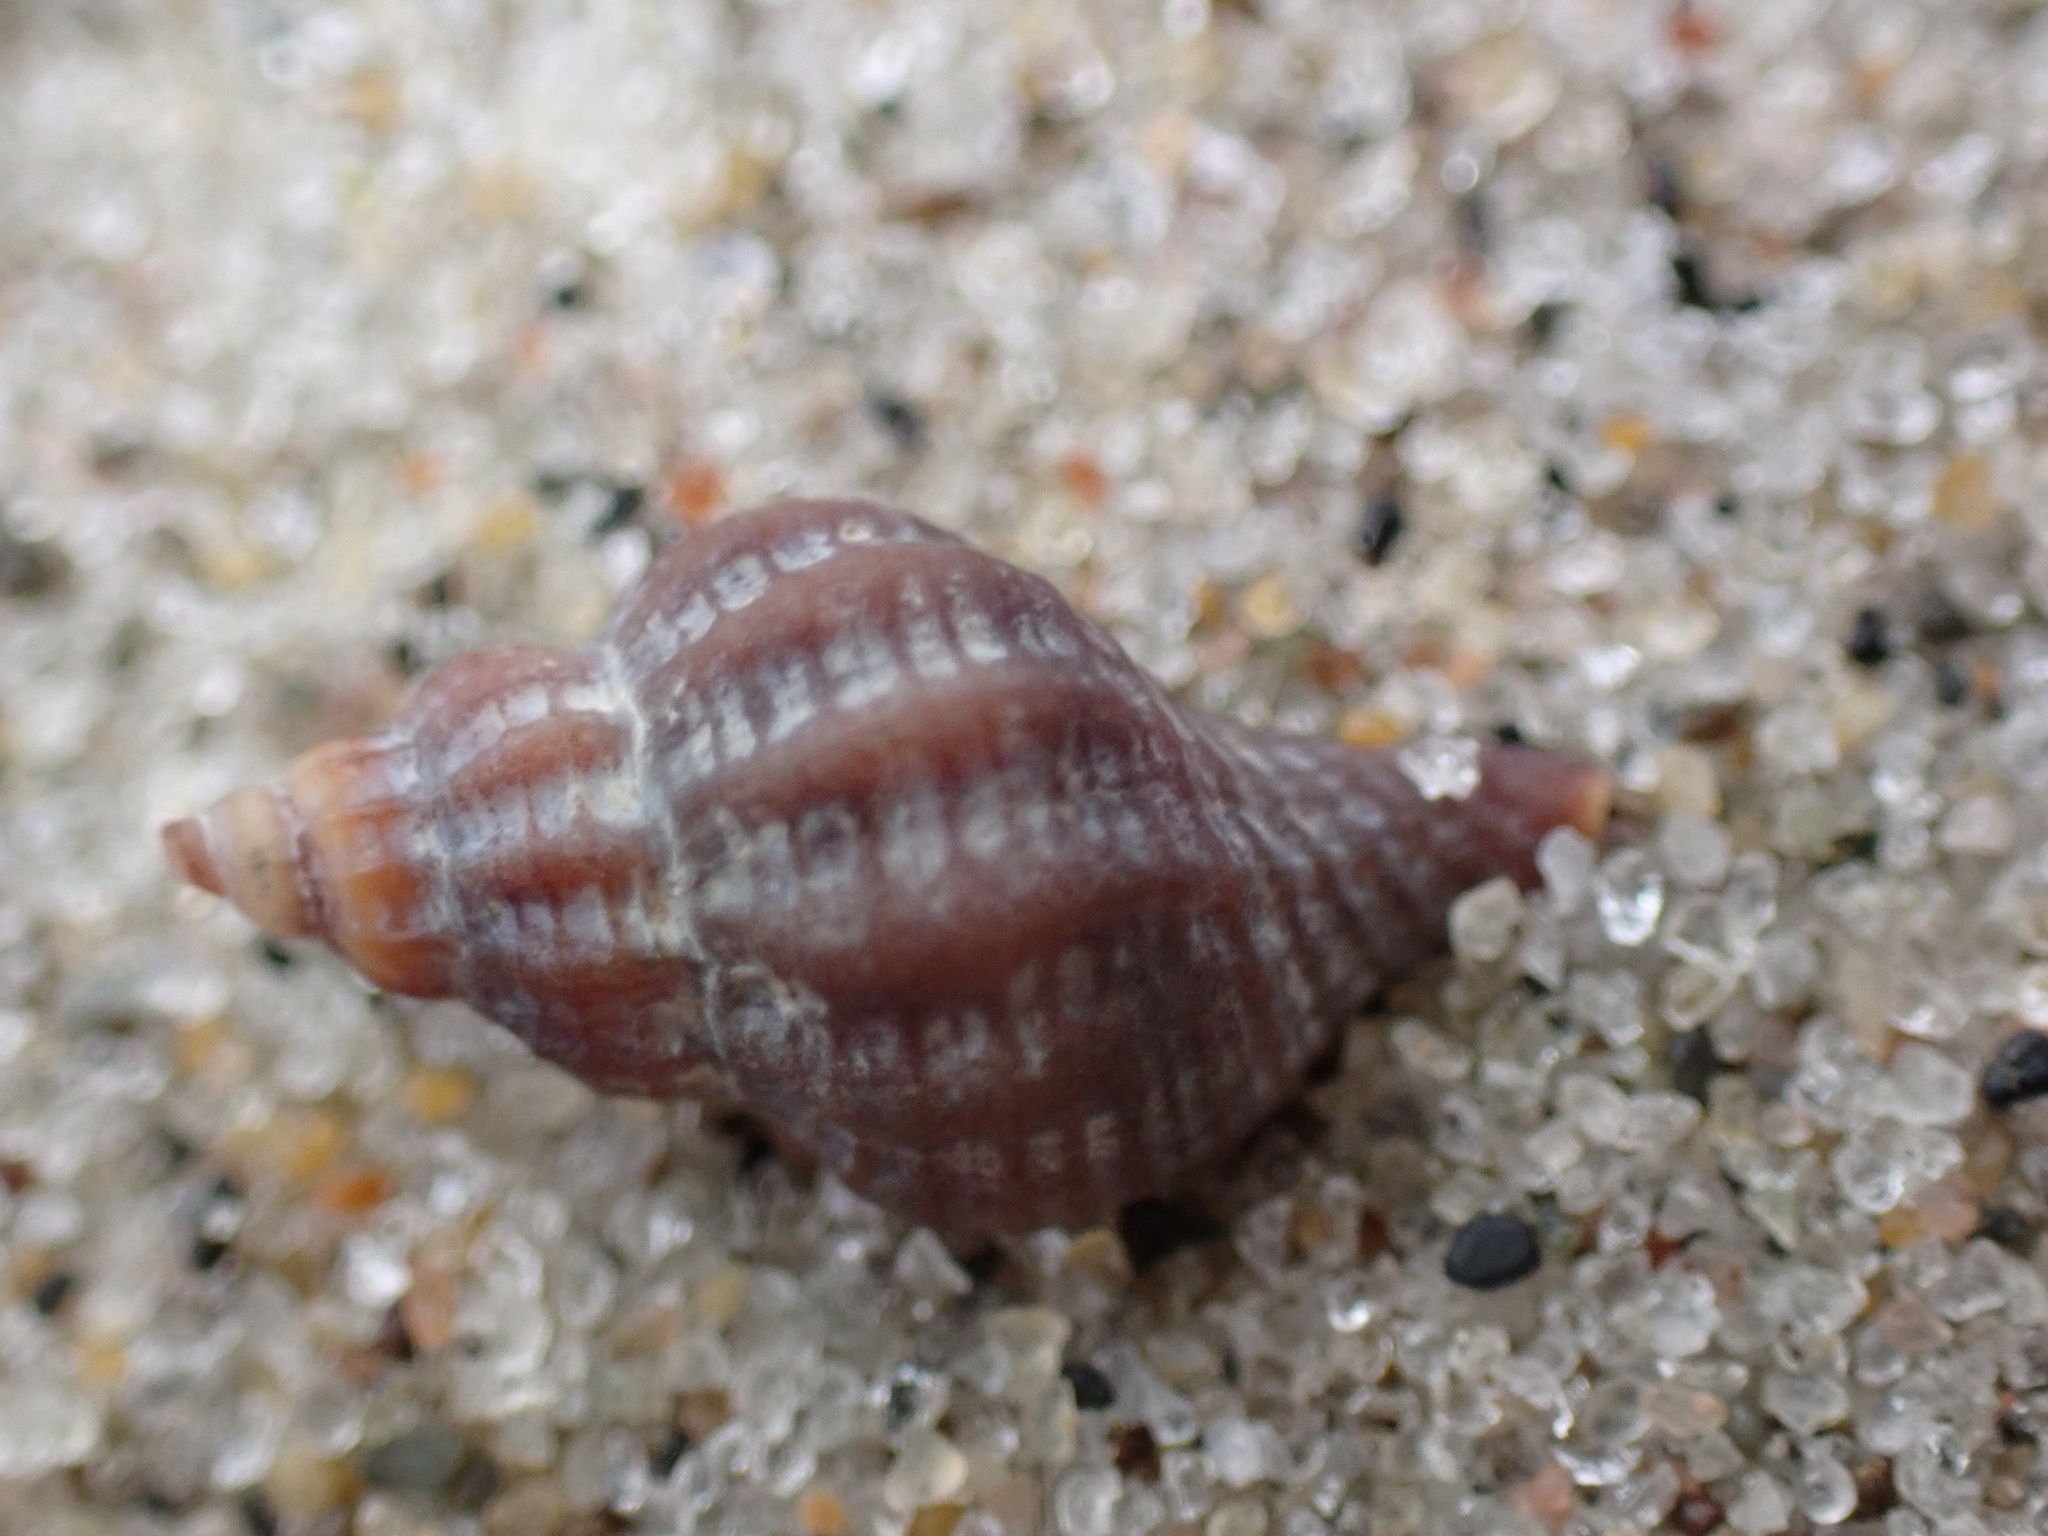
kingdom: Animalia
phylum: Mollusca
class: Gastropoda
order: Neogastropoda
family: Muricidae
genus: Urosalpinx
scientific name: Urosalpinx cinerea
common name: American sting winkle
